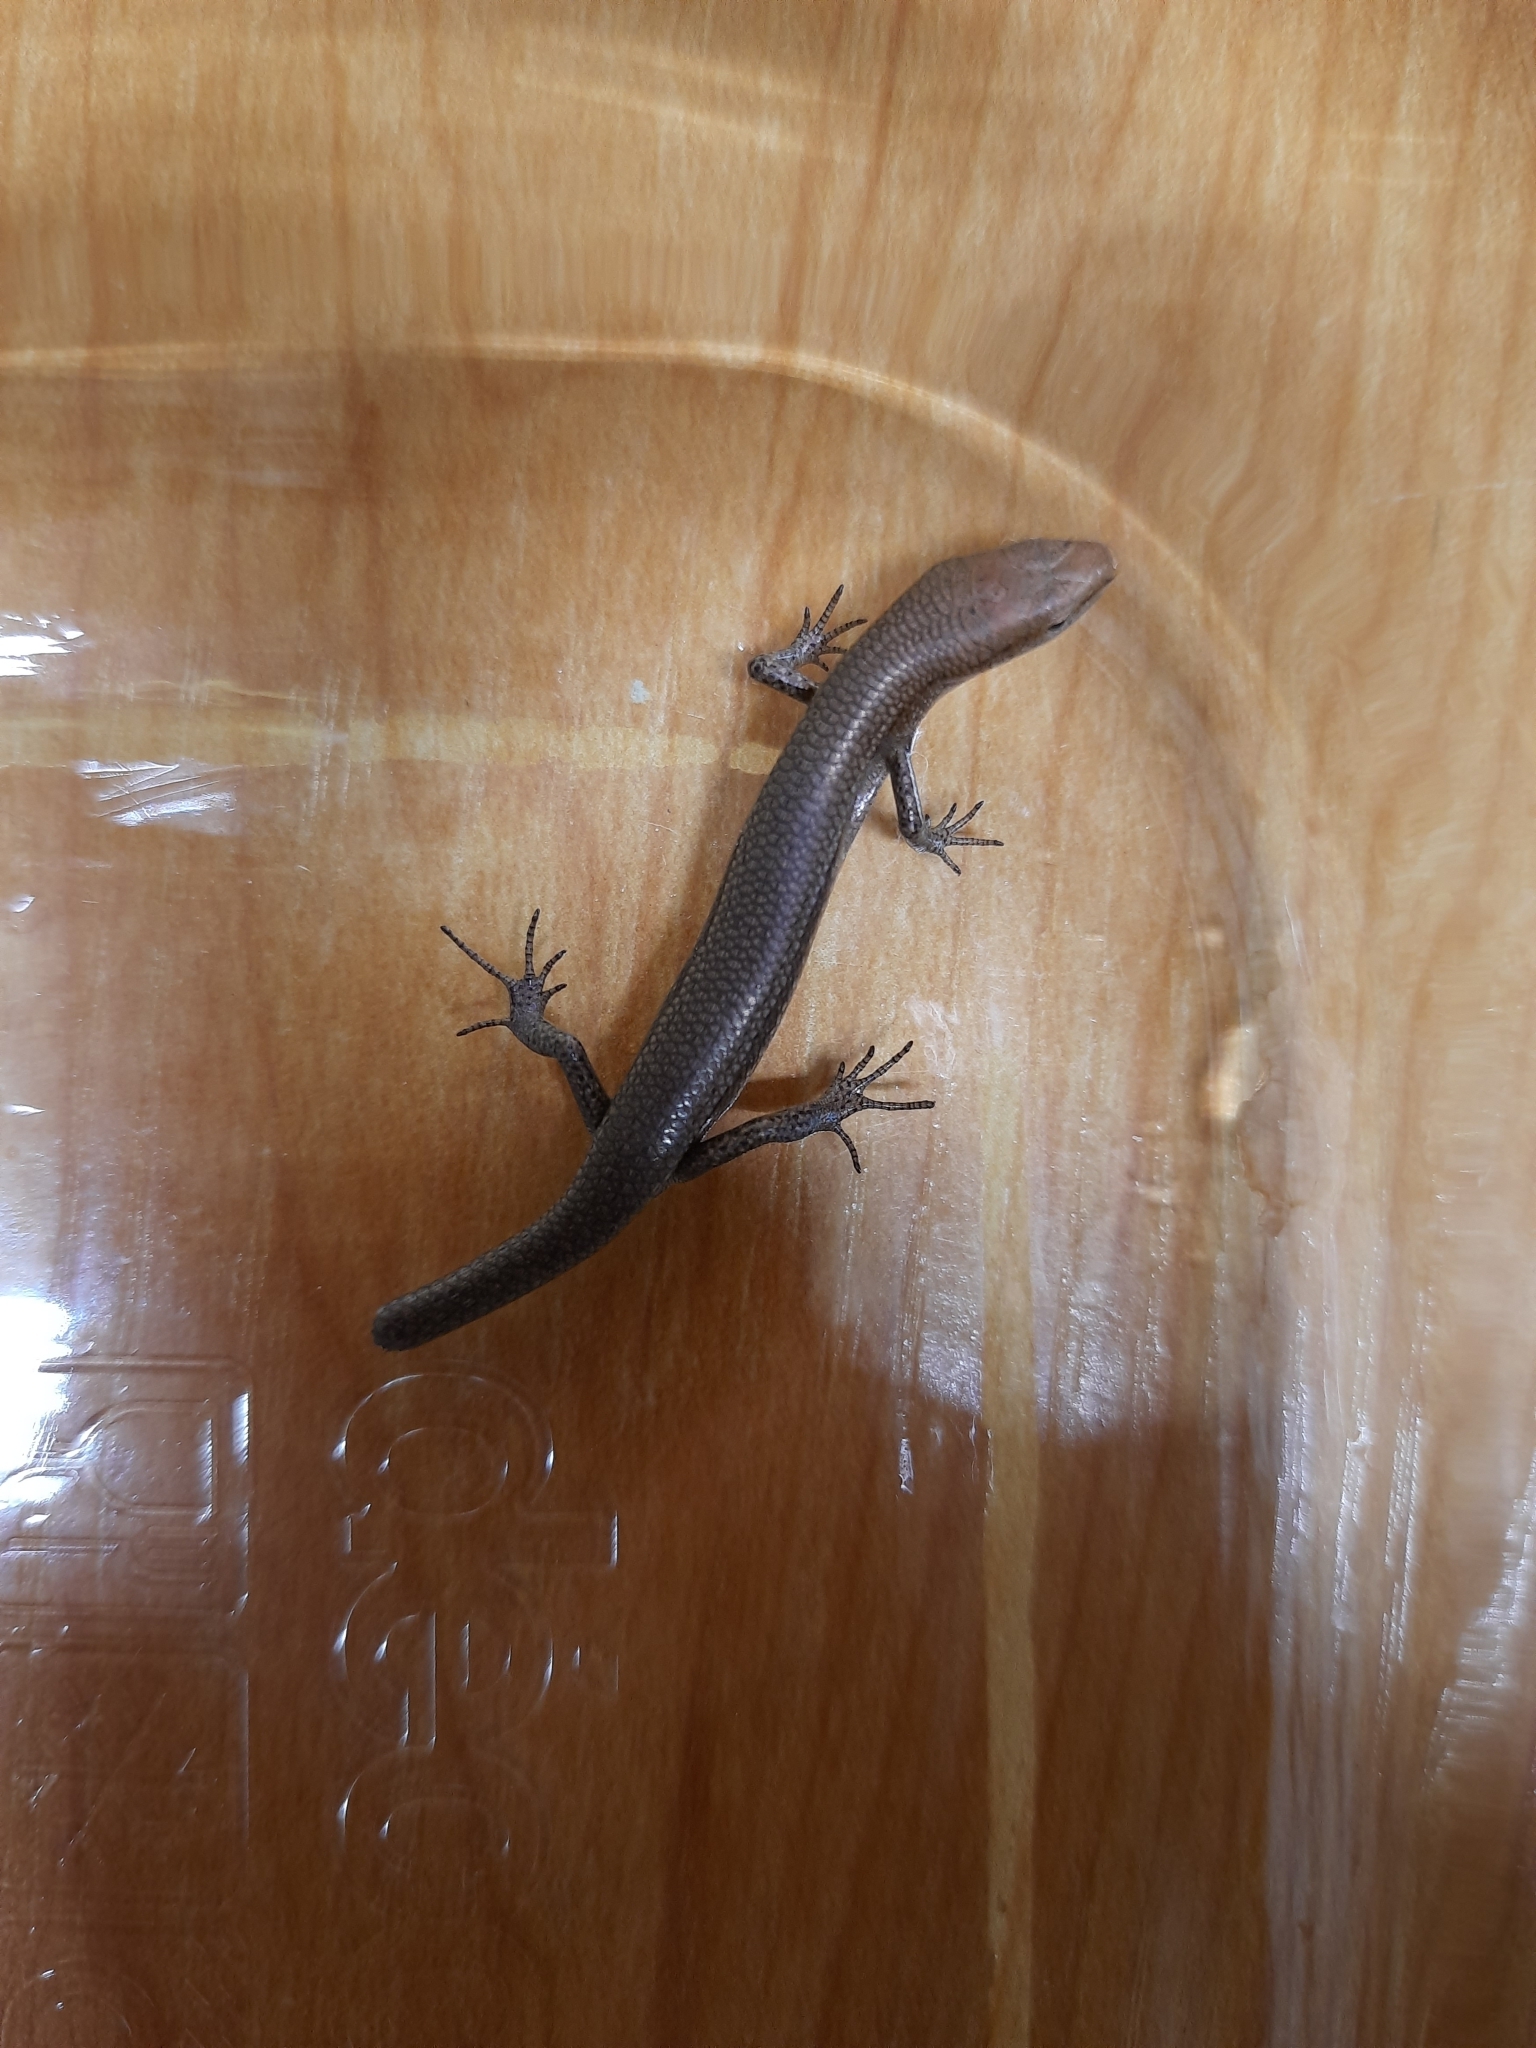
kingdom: Animalia
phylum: Chordata
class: Squamata
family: Scincidae
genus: Lampropholis
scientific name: Lampropholis delicata
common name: Plague skink
